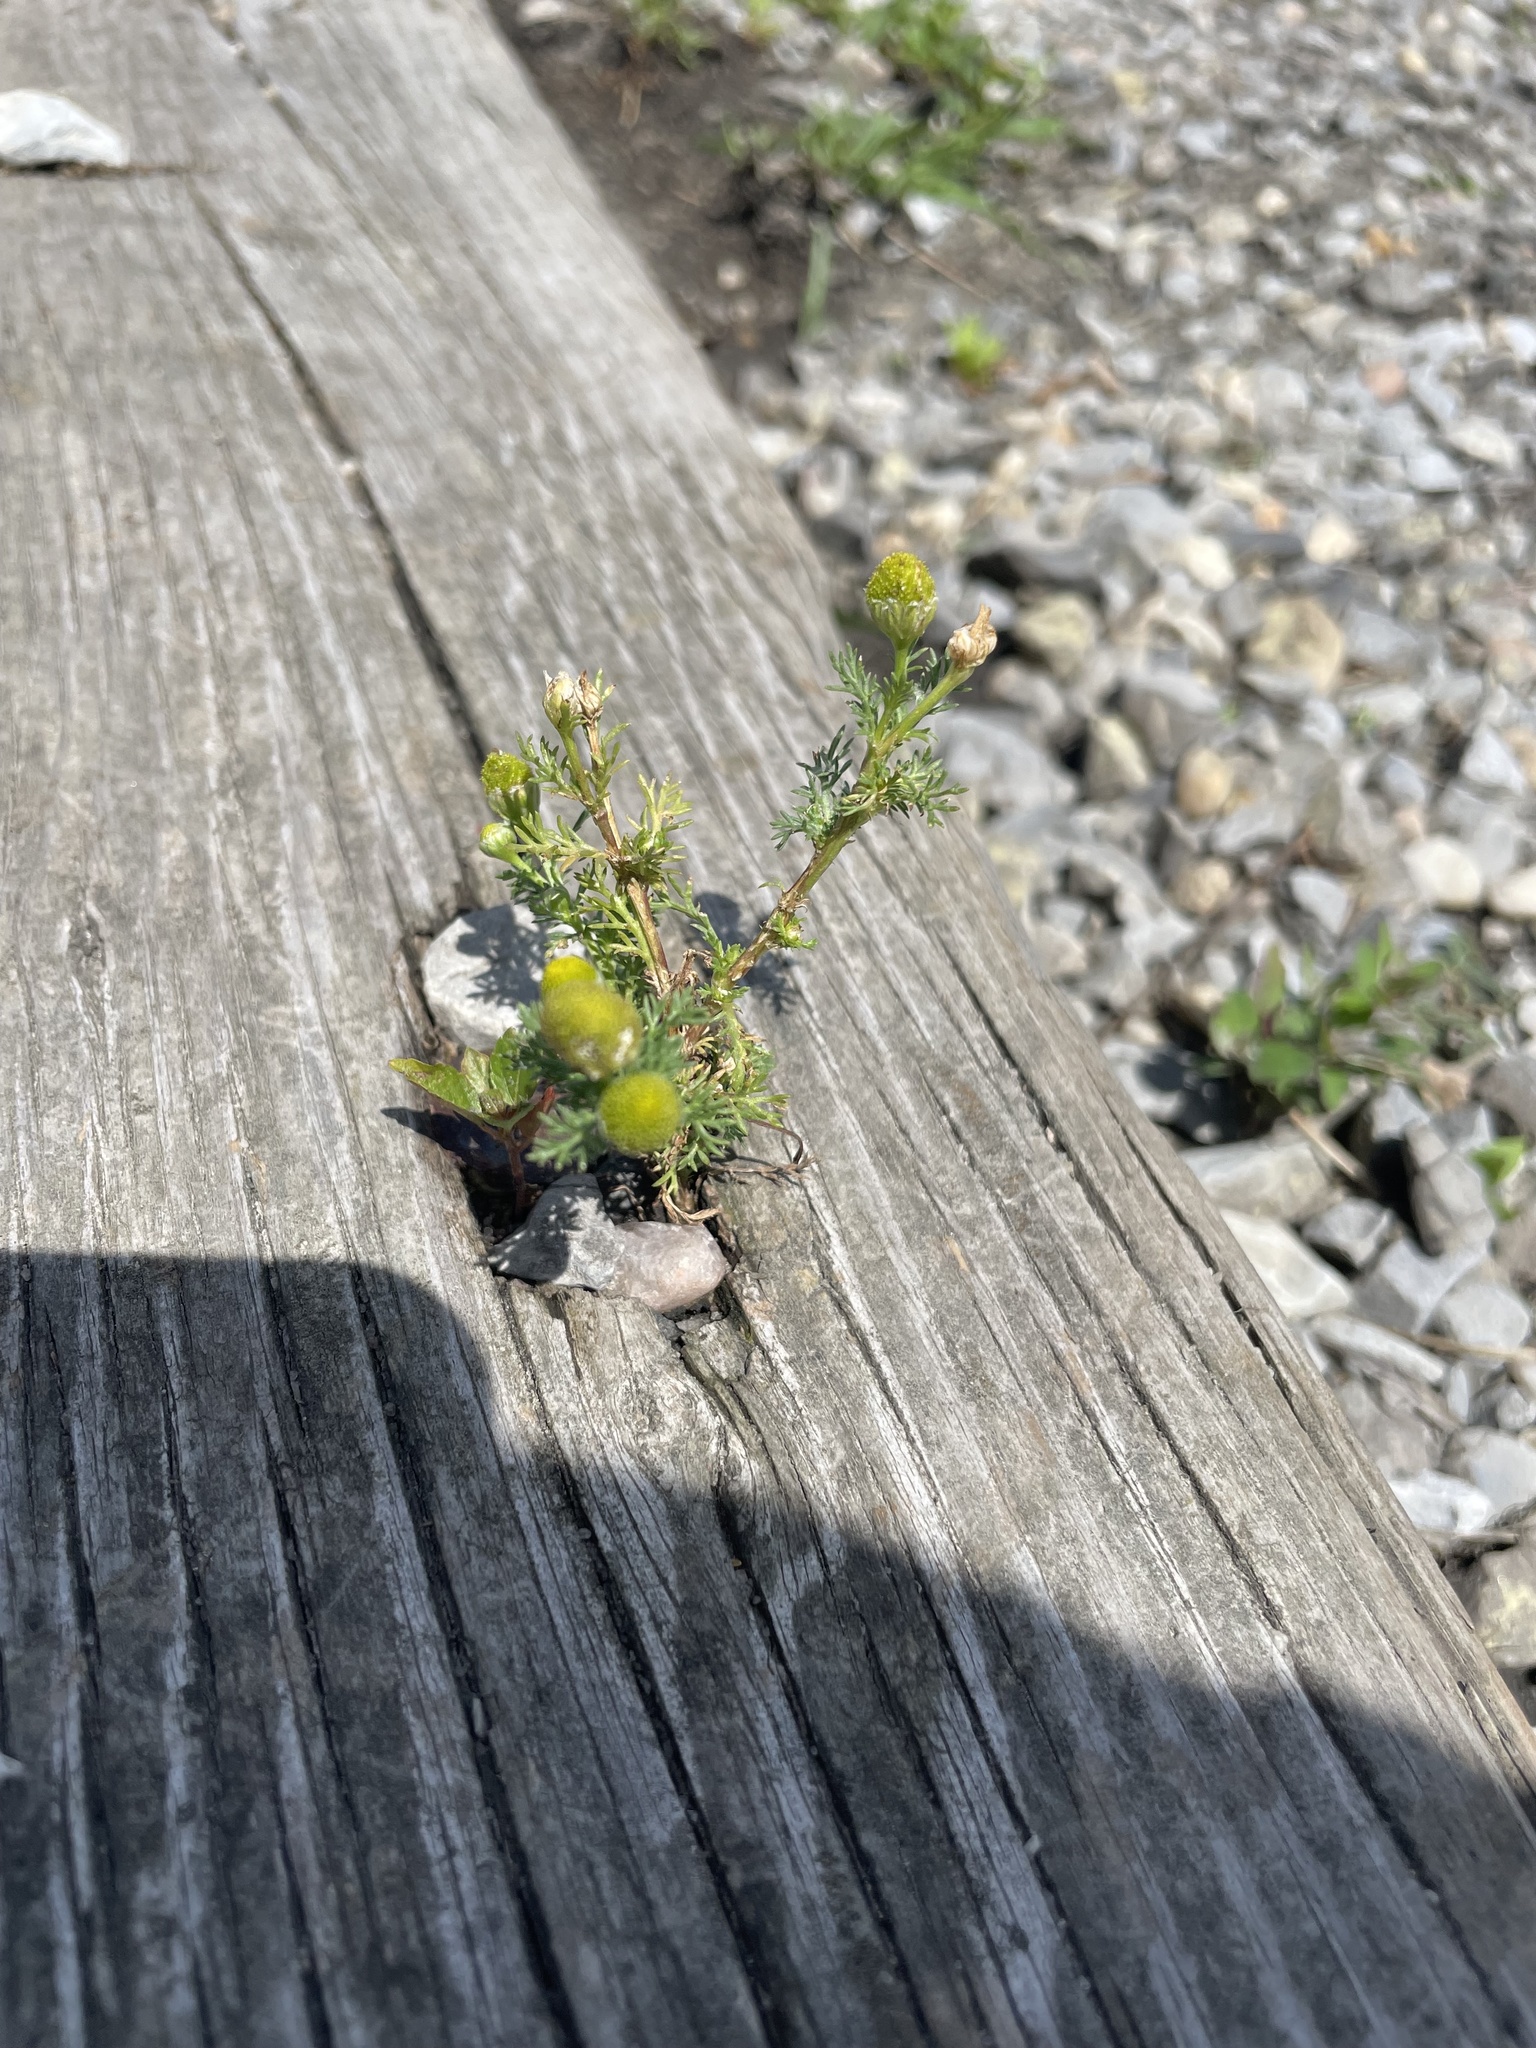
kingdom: Plantae
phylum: Tracheophyta
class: Magnoliopsida
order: Asterales
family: Asteraceae
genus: Matricaria
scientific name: Matricaria discoidea
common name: Disc mayweed
